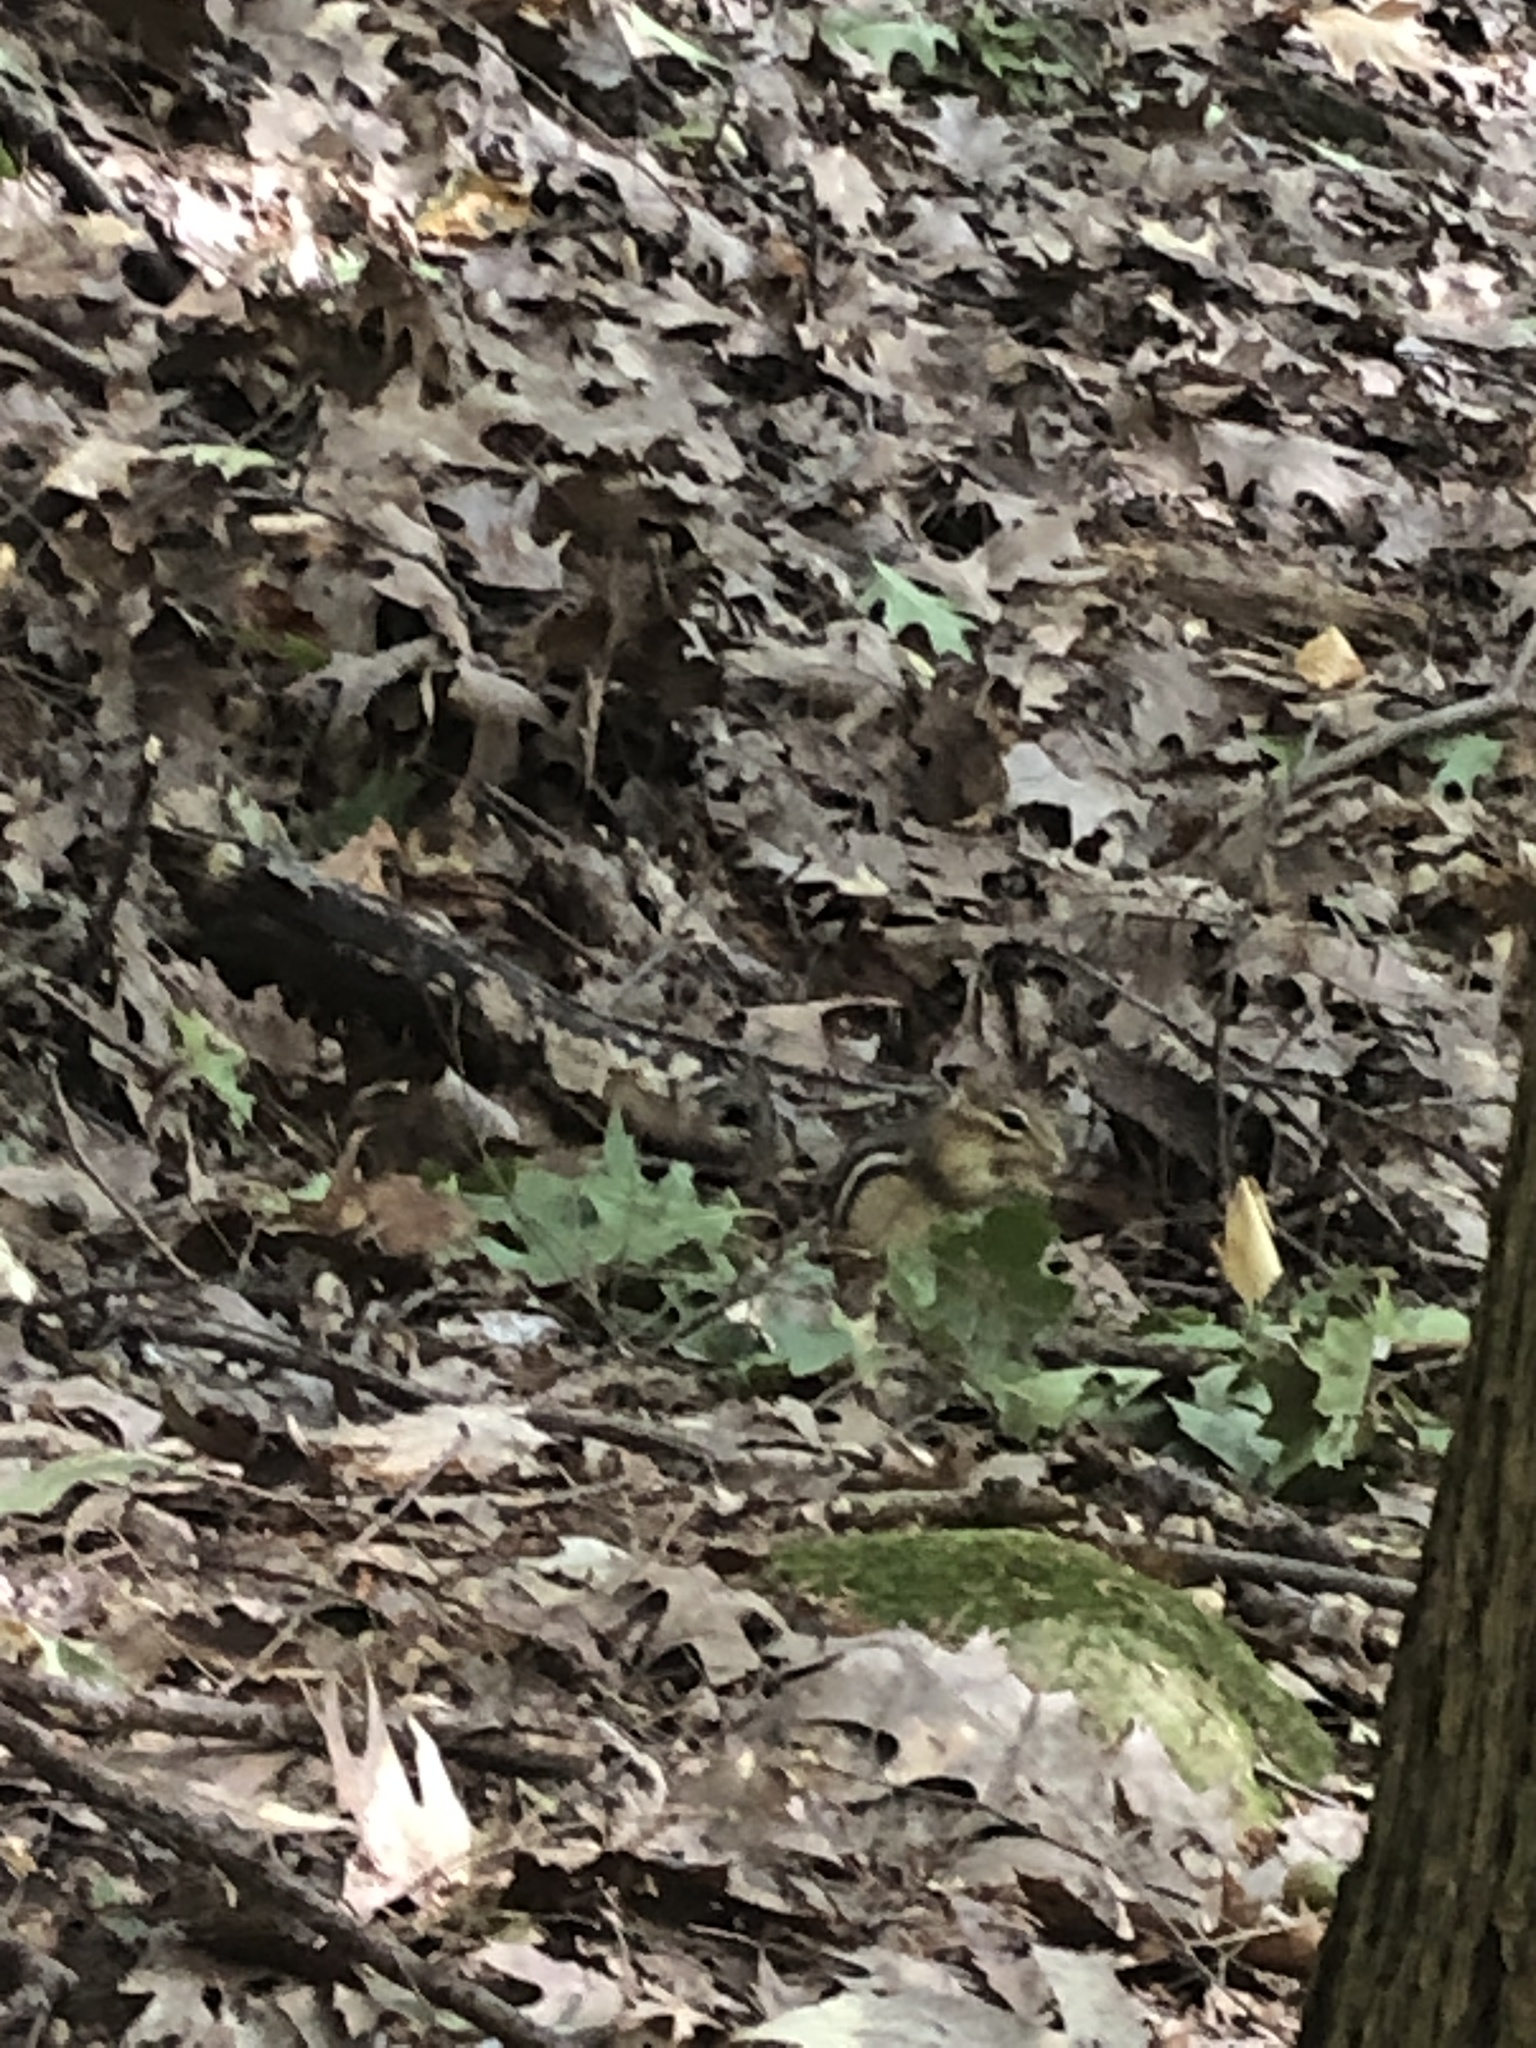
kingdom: Animalia
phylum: Chordata
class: Mammalia
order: Rodentia
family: Sciuridae
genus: Tamias
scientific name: Tamias striatus
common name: Eastern chipmunk
